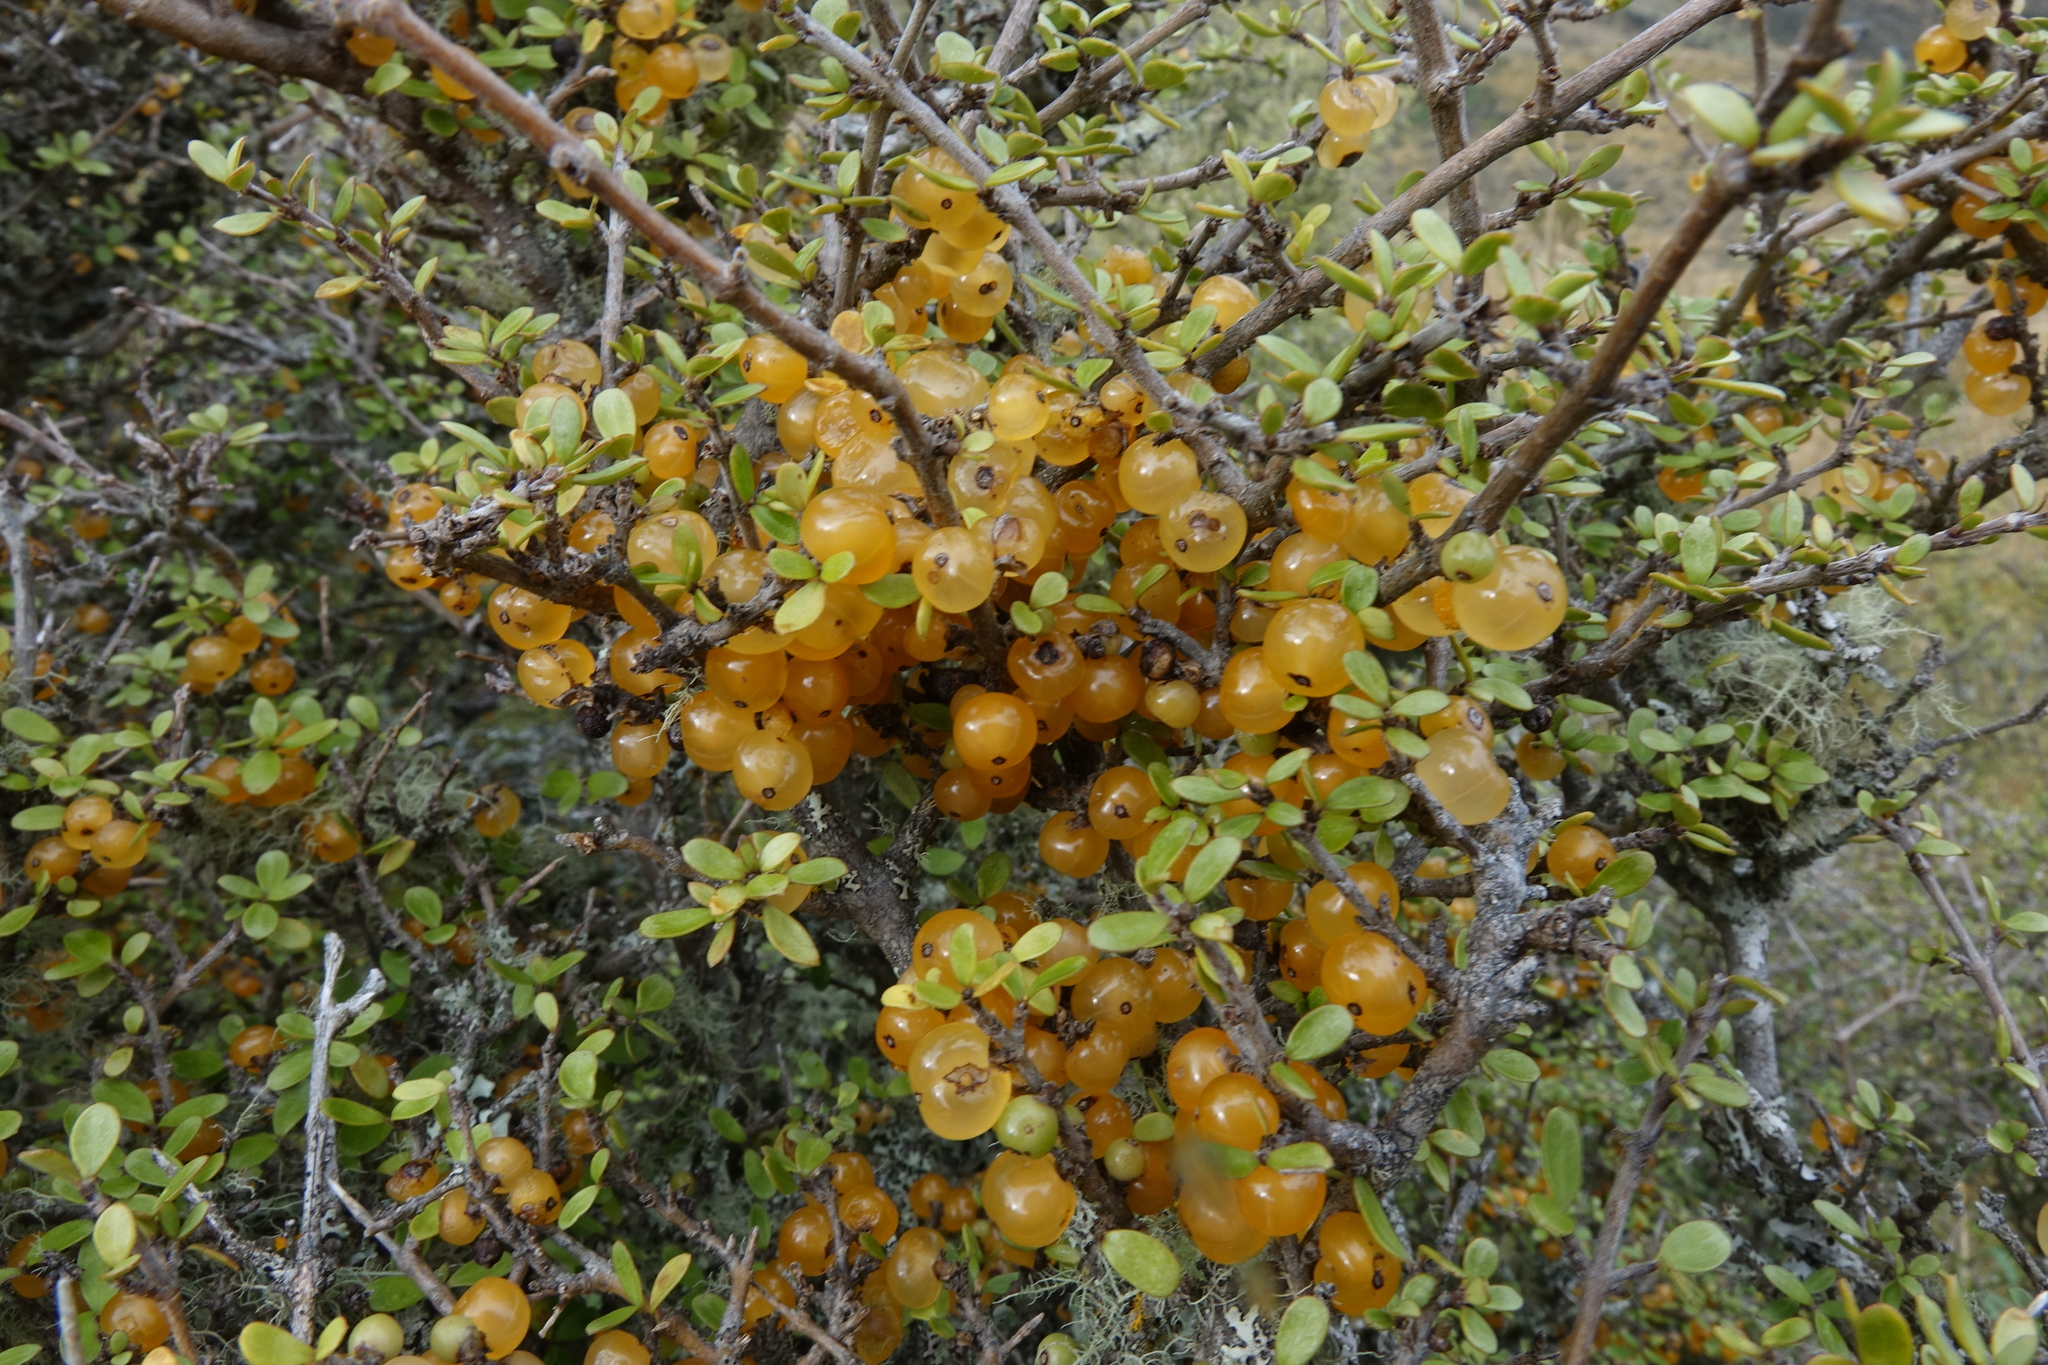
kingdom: Plantae
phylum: Tracheophyta
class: Magnoliopsida
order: Gentianales
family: Rubiaceae
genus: Coprosma
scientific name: Coprosma dumosa
